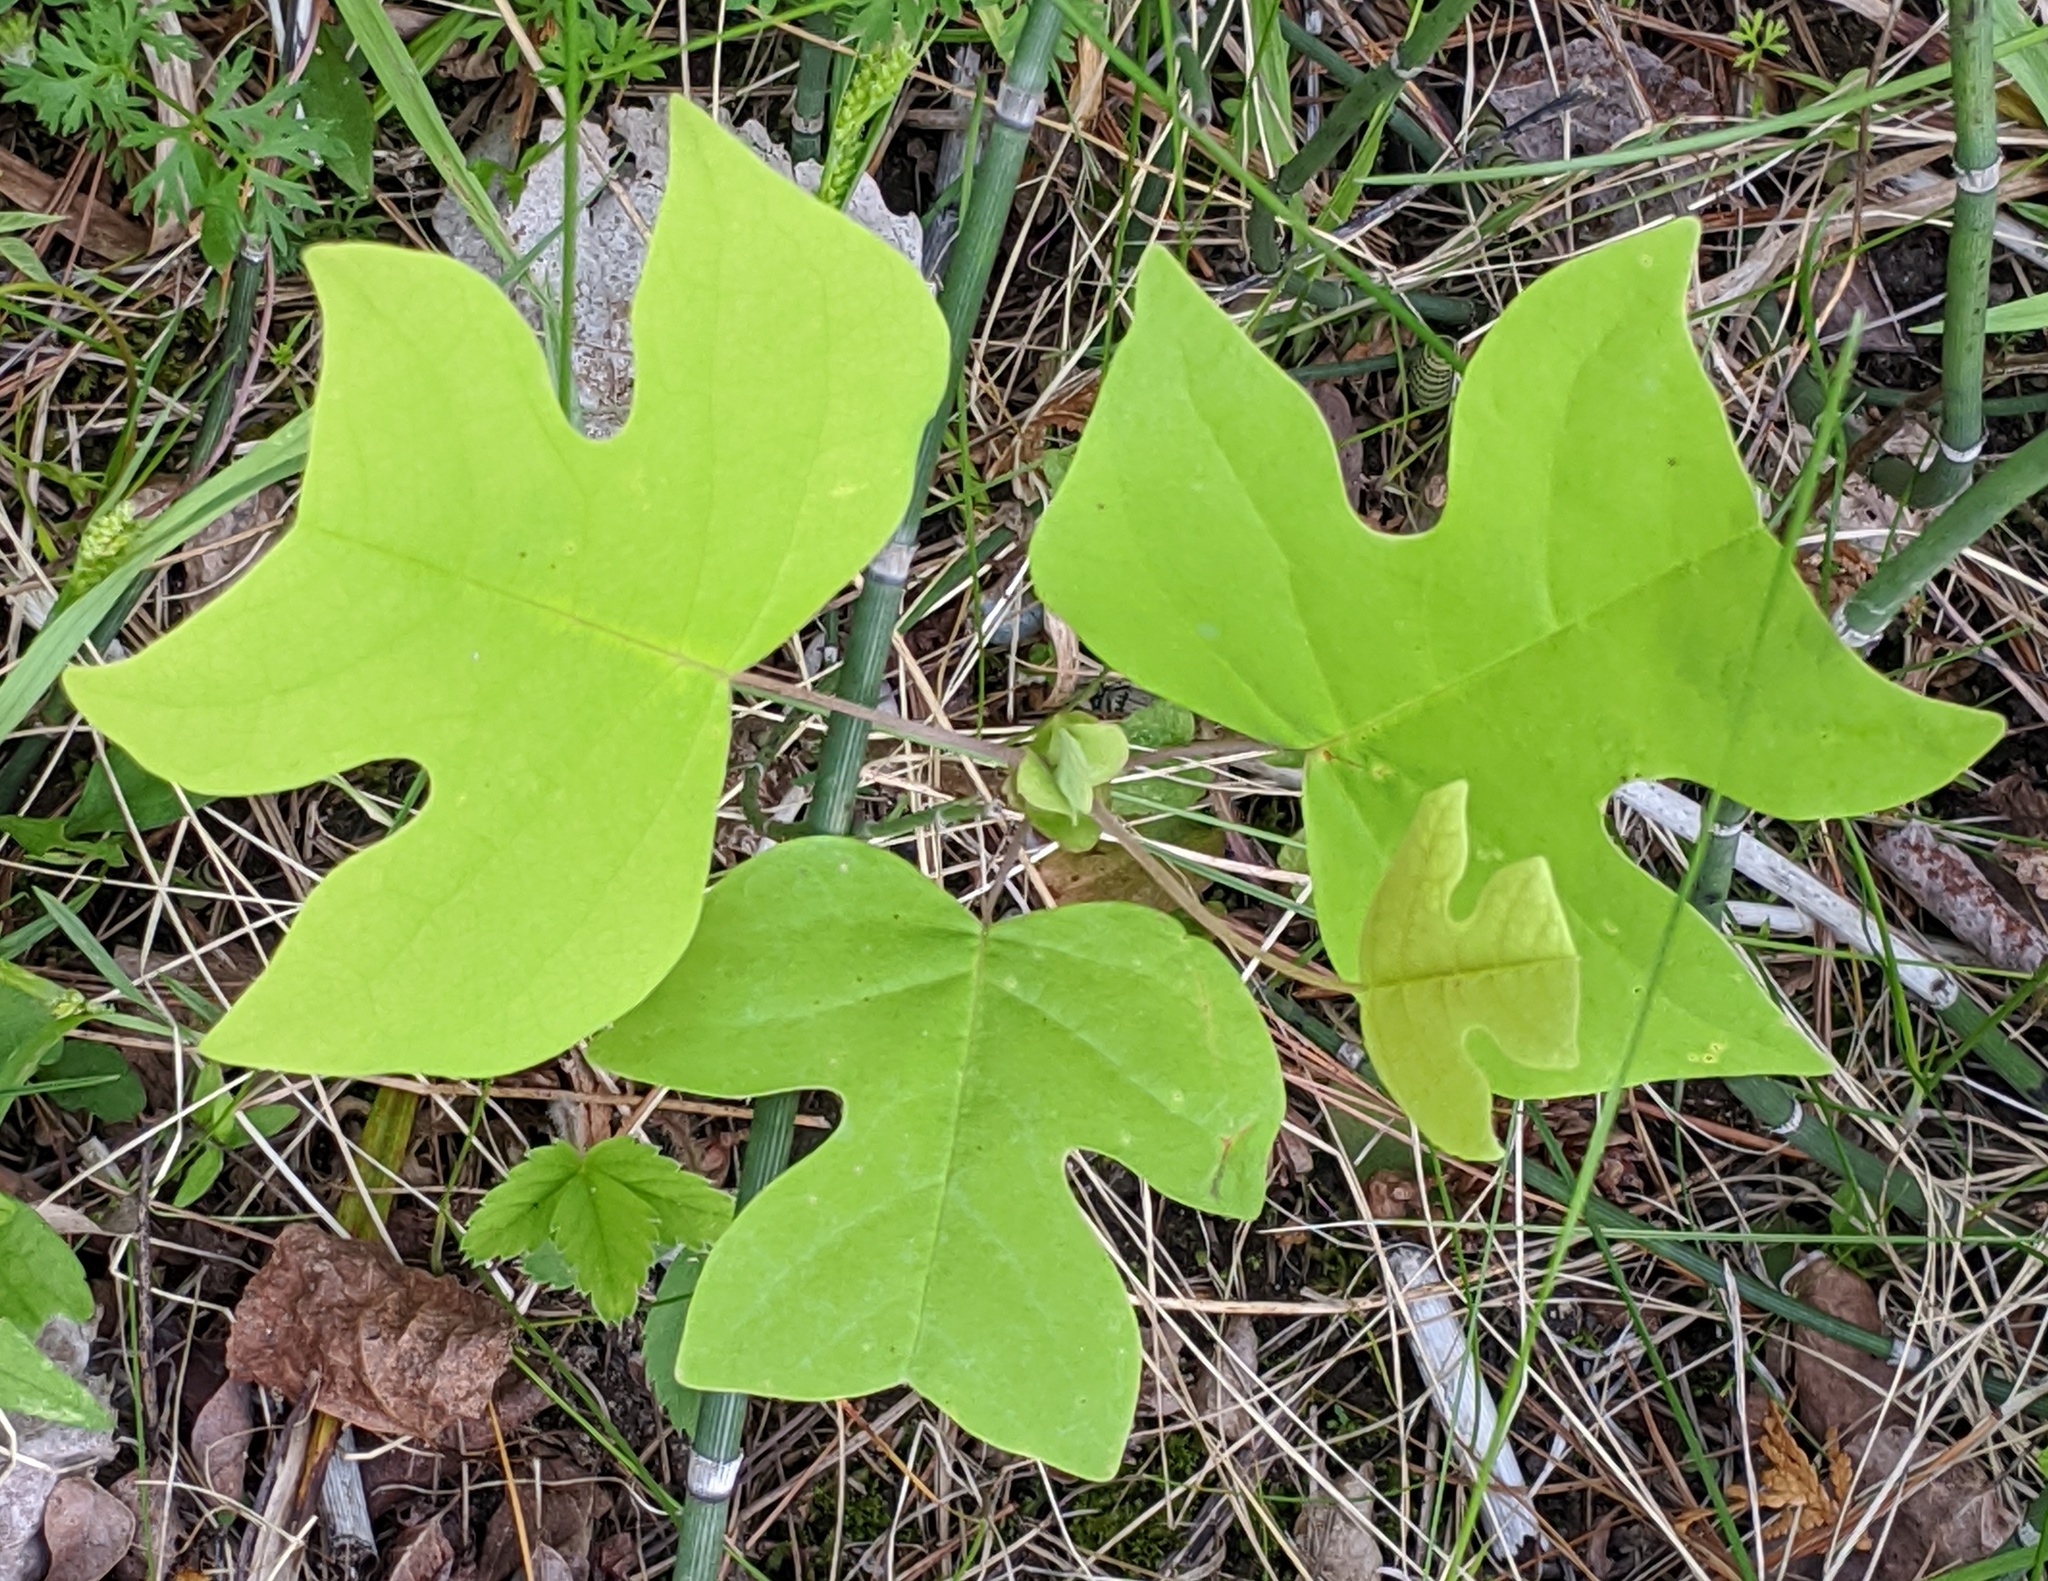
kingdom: Plantae
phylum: Tracheophyta
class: Magnoliopsida
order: Magnoliales
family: Magnoliaceae
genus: Liriodendron
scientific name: Liriodendron tulipifera
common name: Tulip tree
